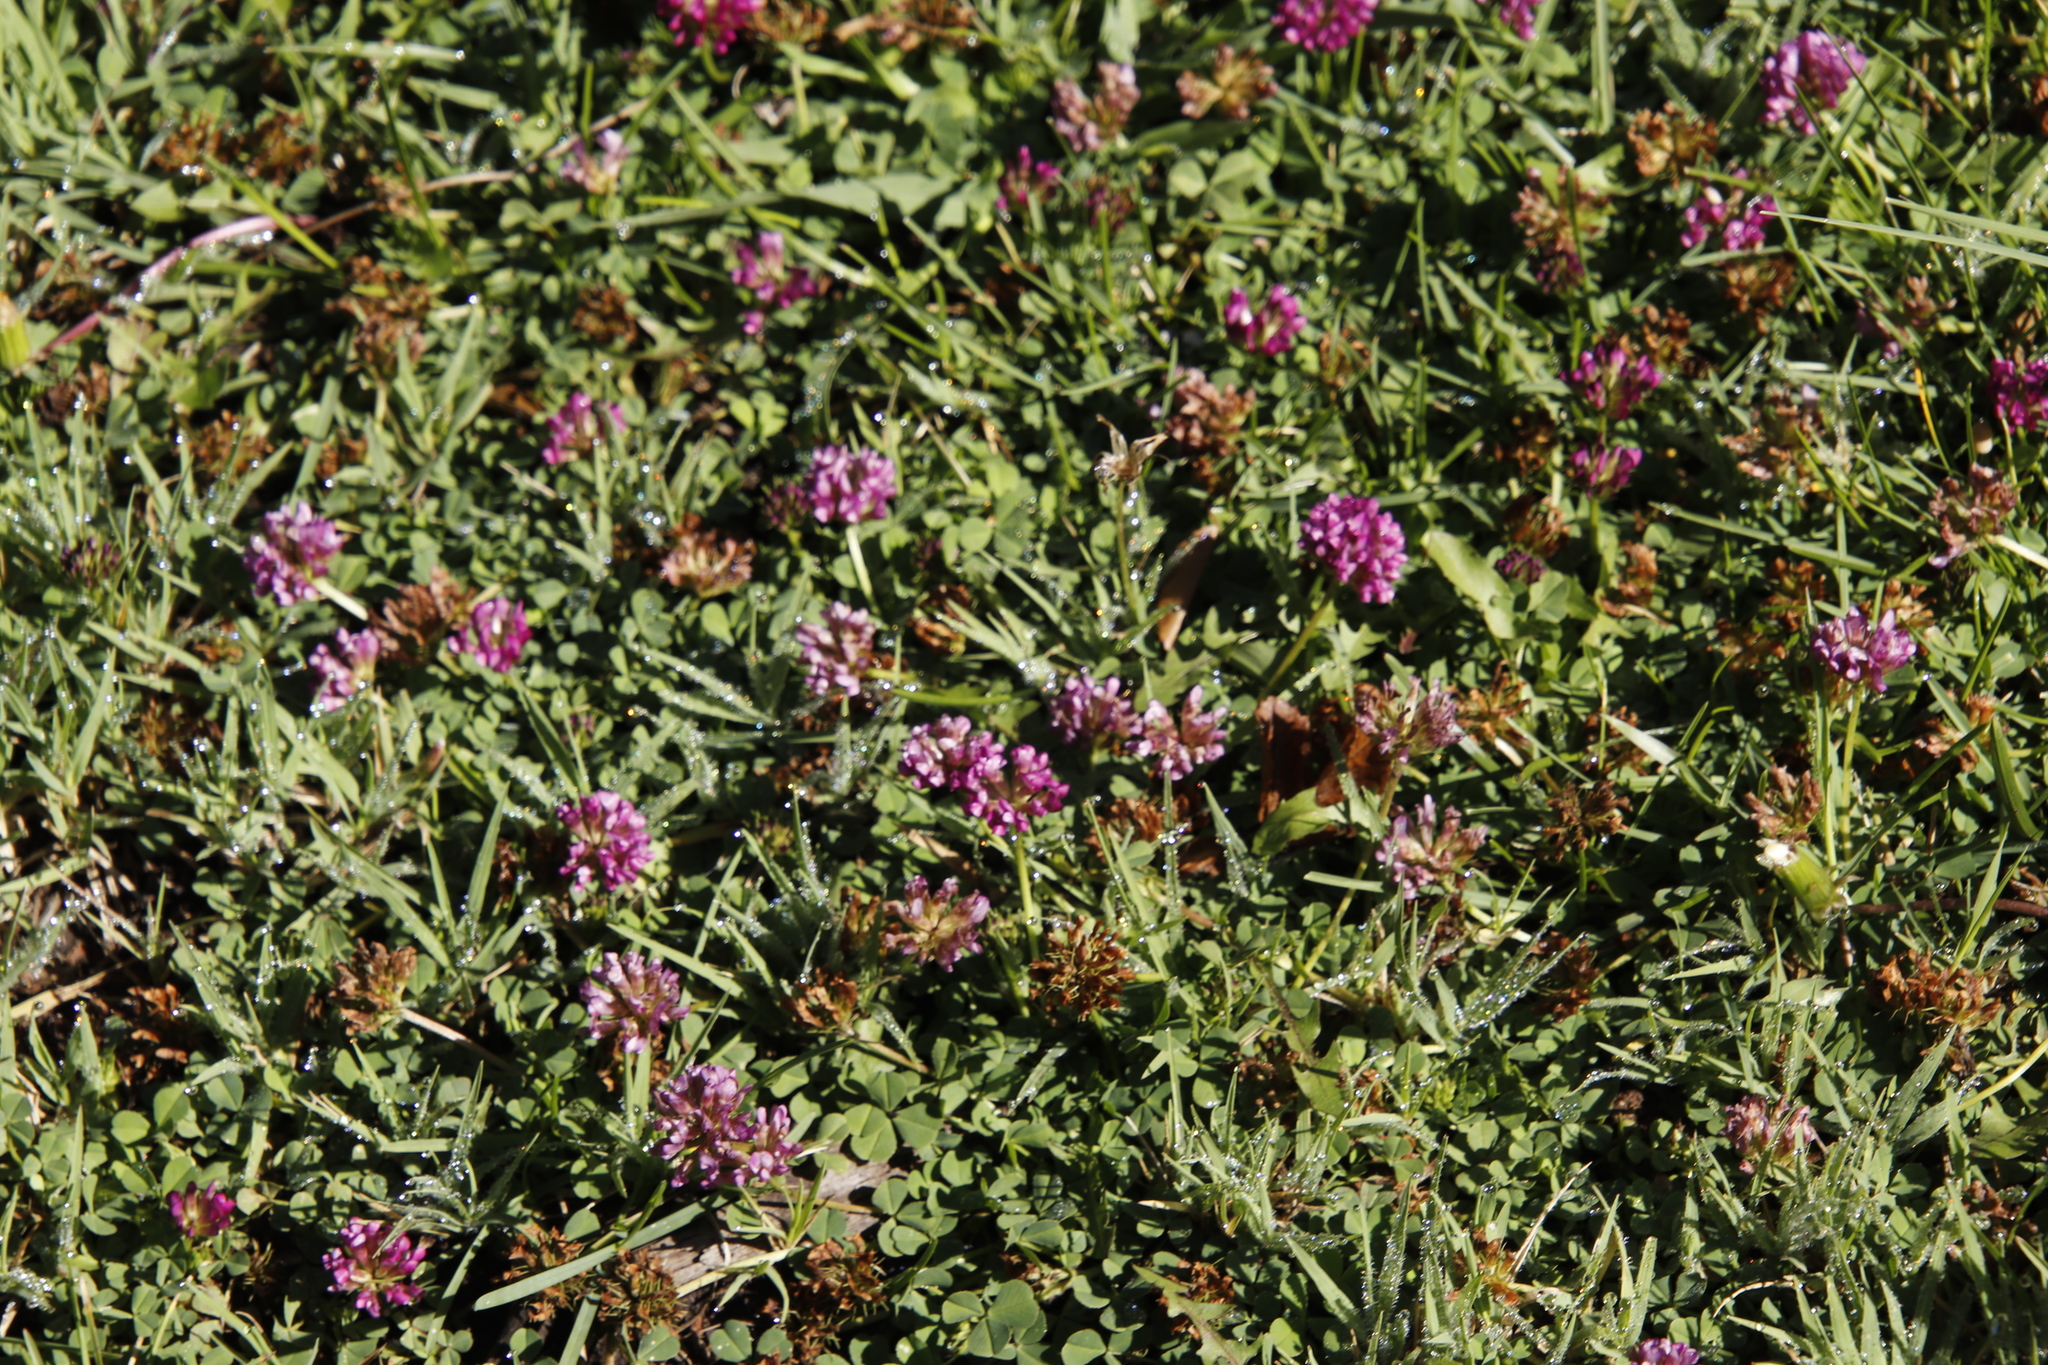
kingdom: Plantae
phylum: Tracheophyta
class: Magnoliopsida
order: Fabales
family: Fabaceae
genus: Trifolium
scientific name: Trifolium burchellianum
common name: Burchell's clover
